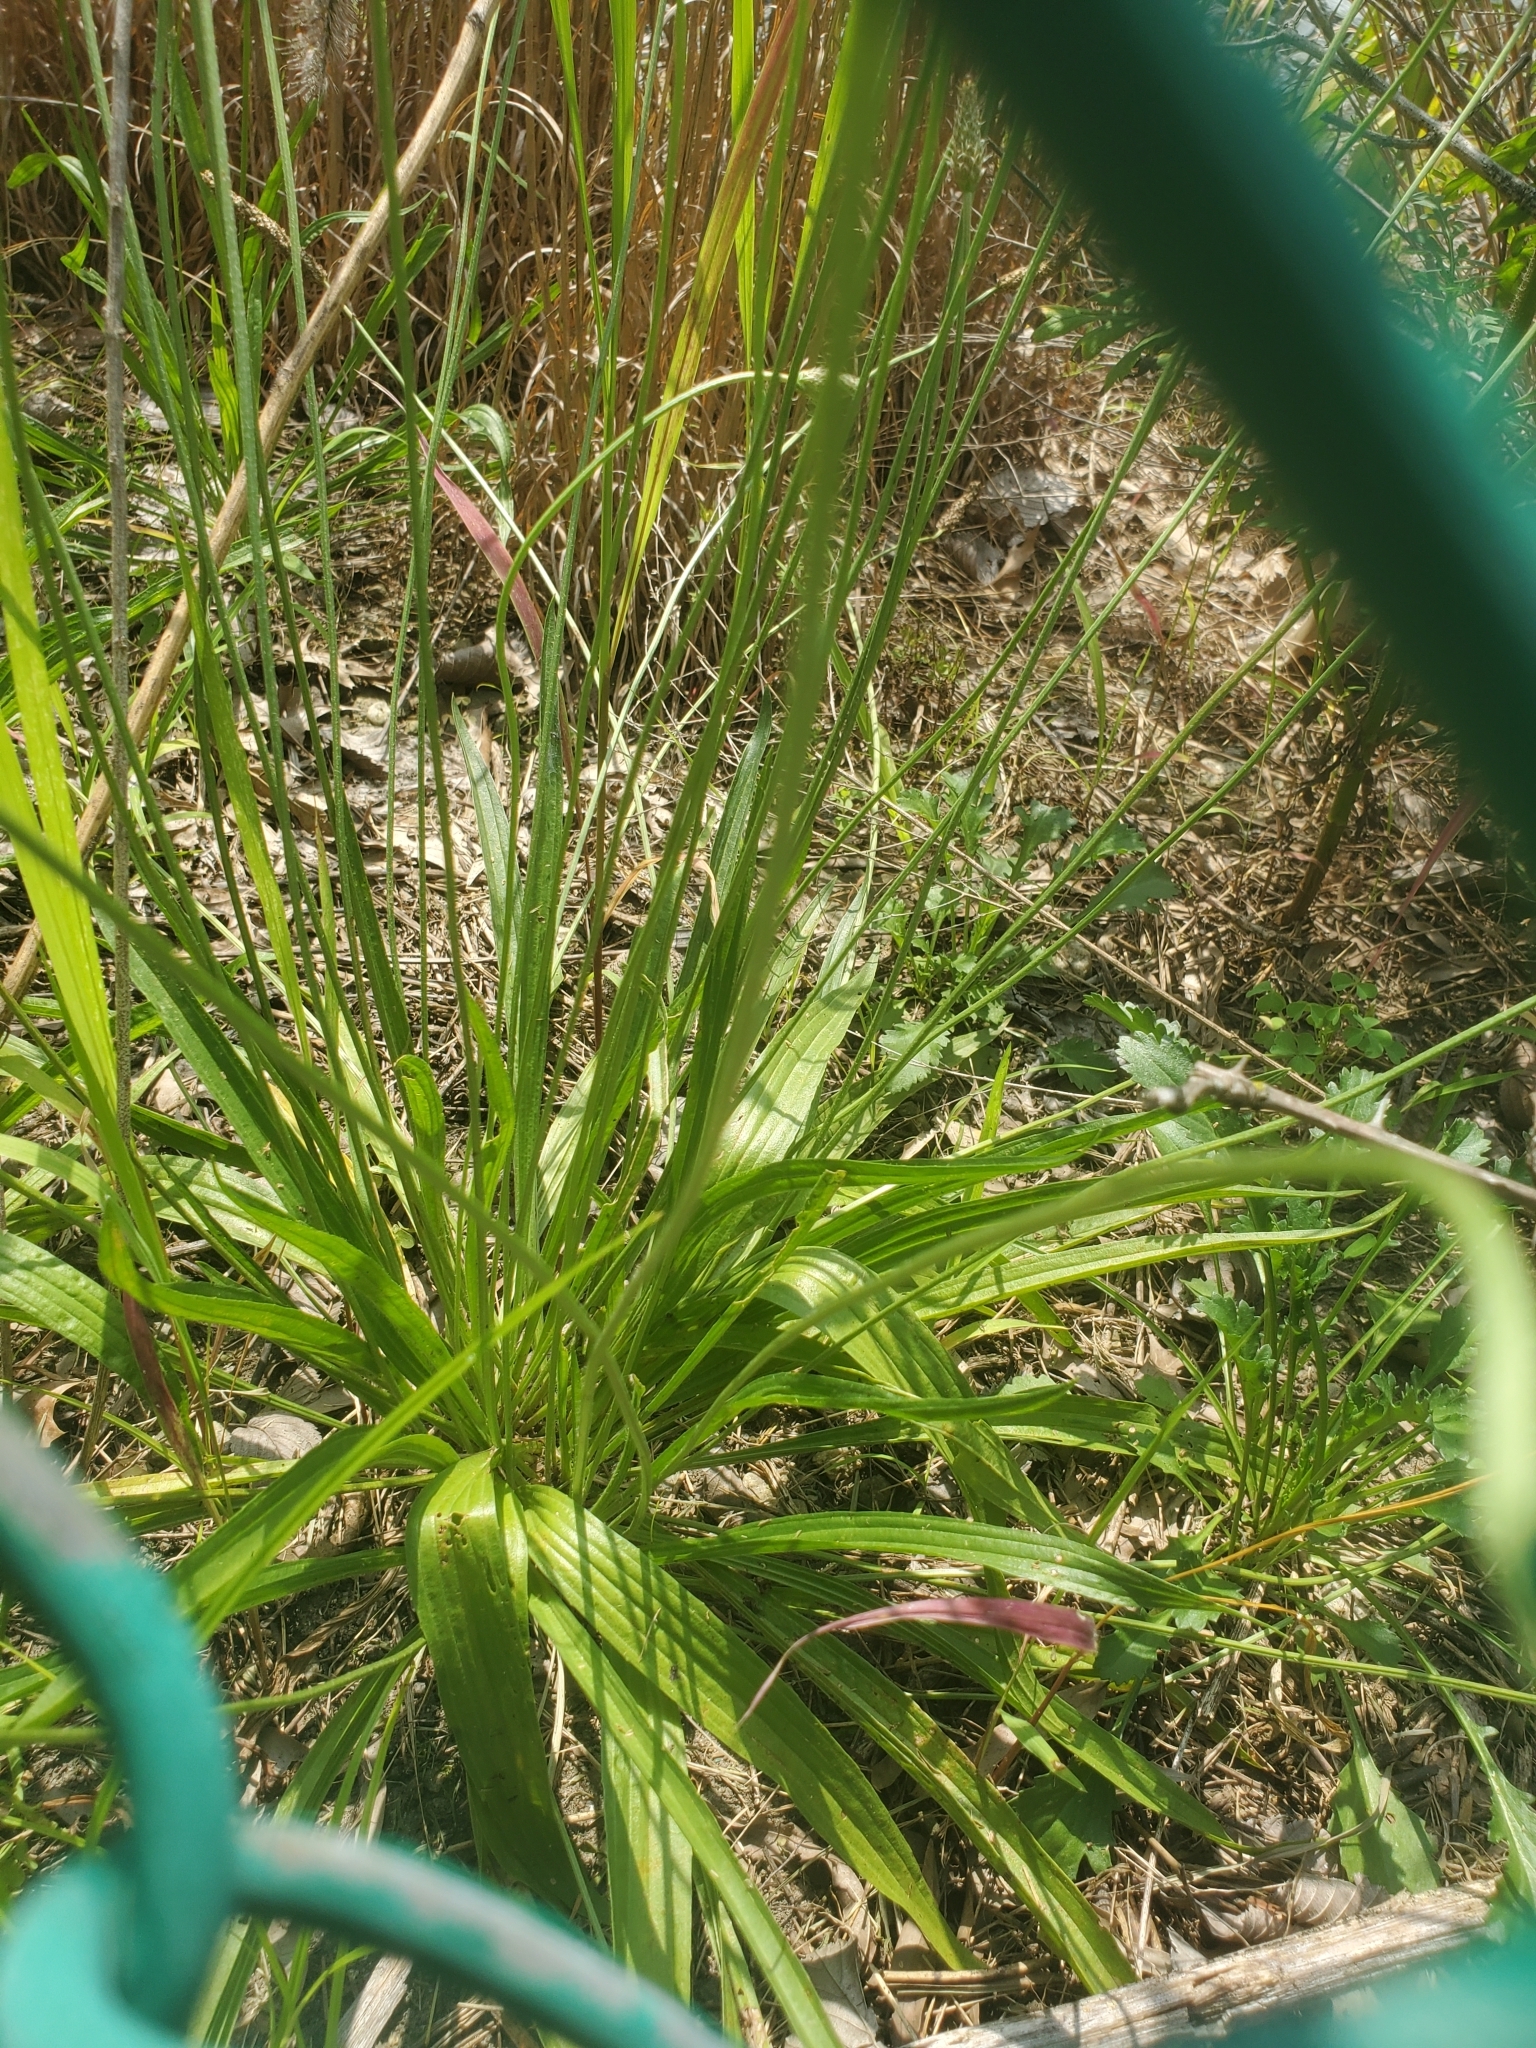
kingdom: Plantae
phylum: Tracheophyta
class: Magnoliopsida
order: Lamiales
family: Plantaginaceae
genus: Plantago
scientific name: Plantago lanceolata
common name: Ribwort plantain
